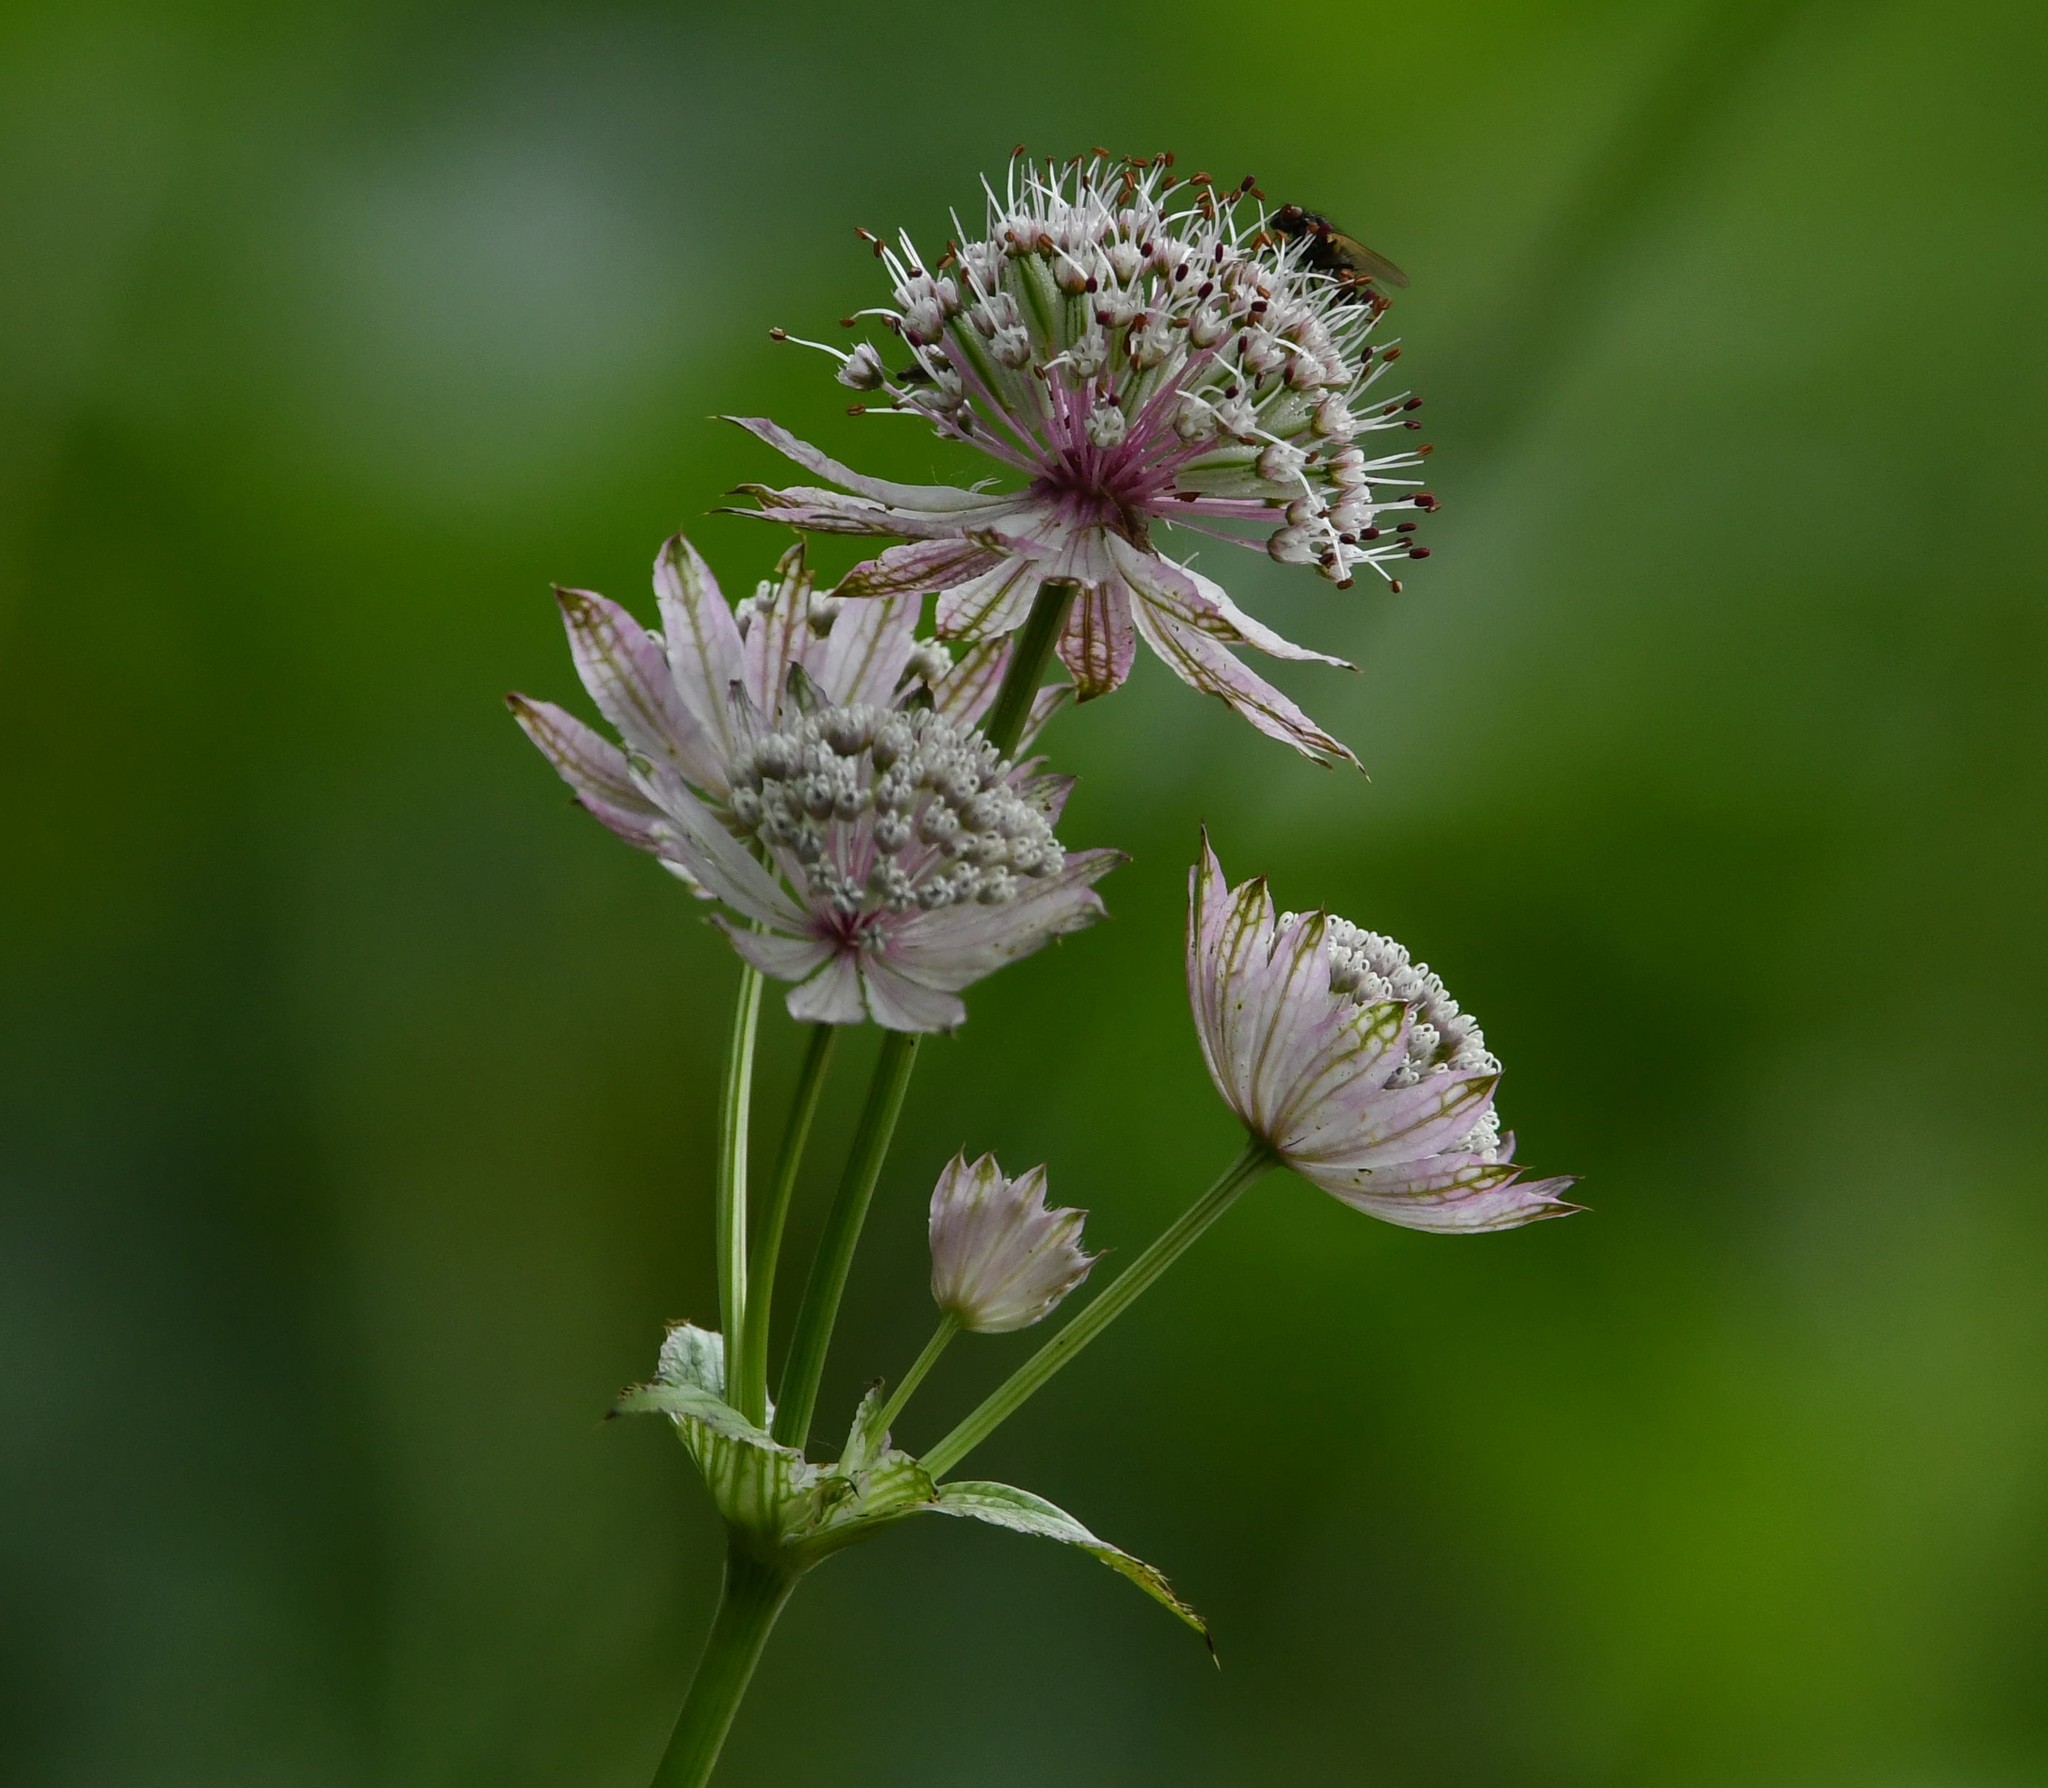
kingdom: Plantae
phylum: Tracheophyta
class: Magnoliopsida
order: Apiales
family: Apiaceae
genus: Astrantia
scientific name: Astrantia major
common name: Greater masterwort
